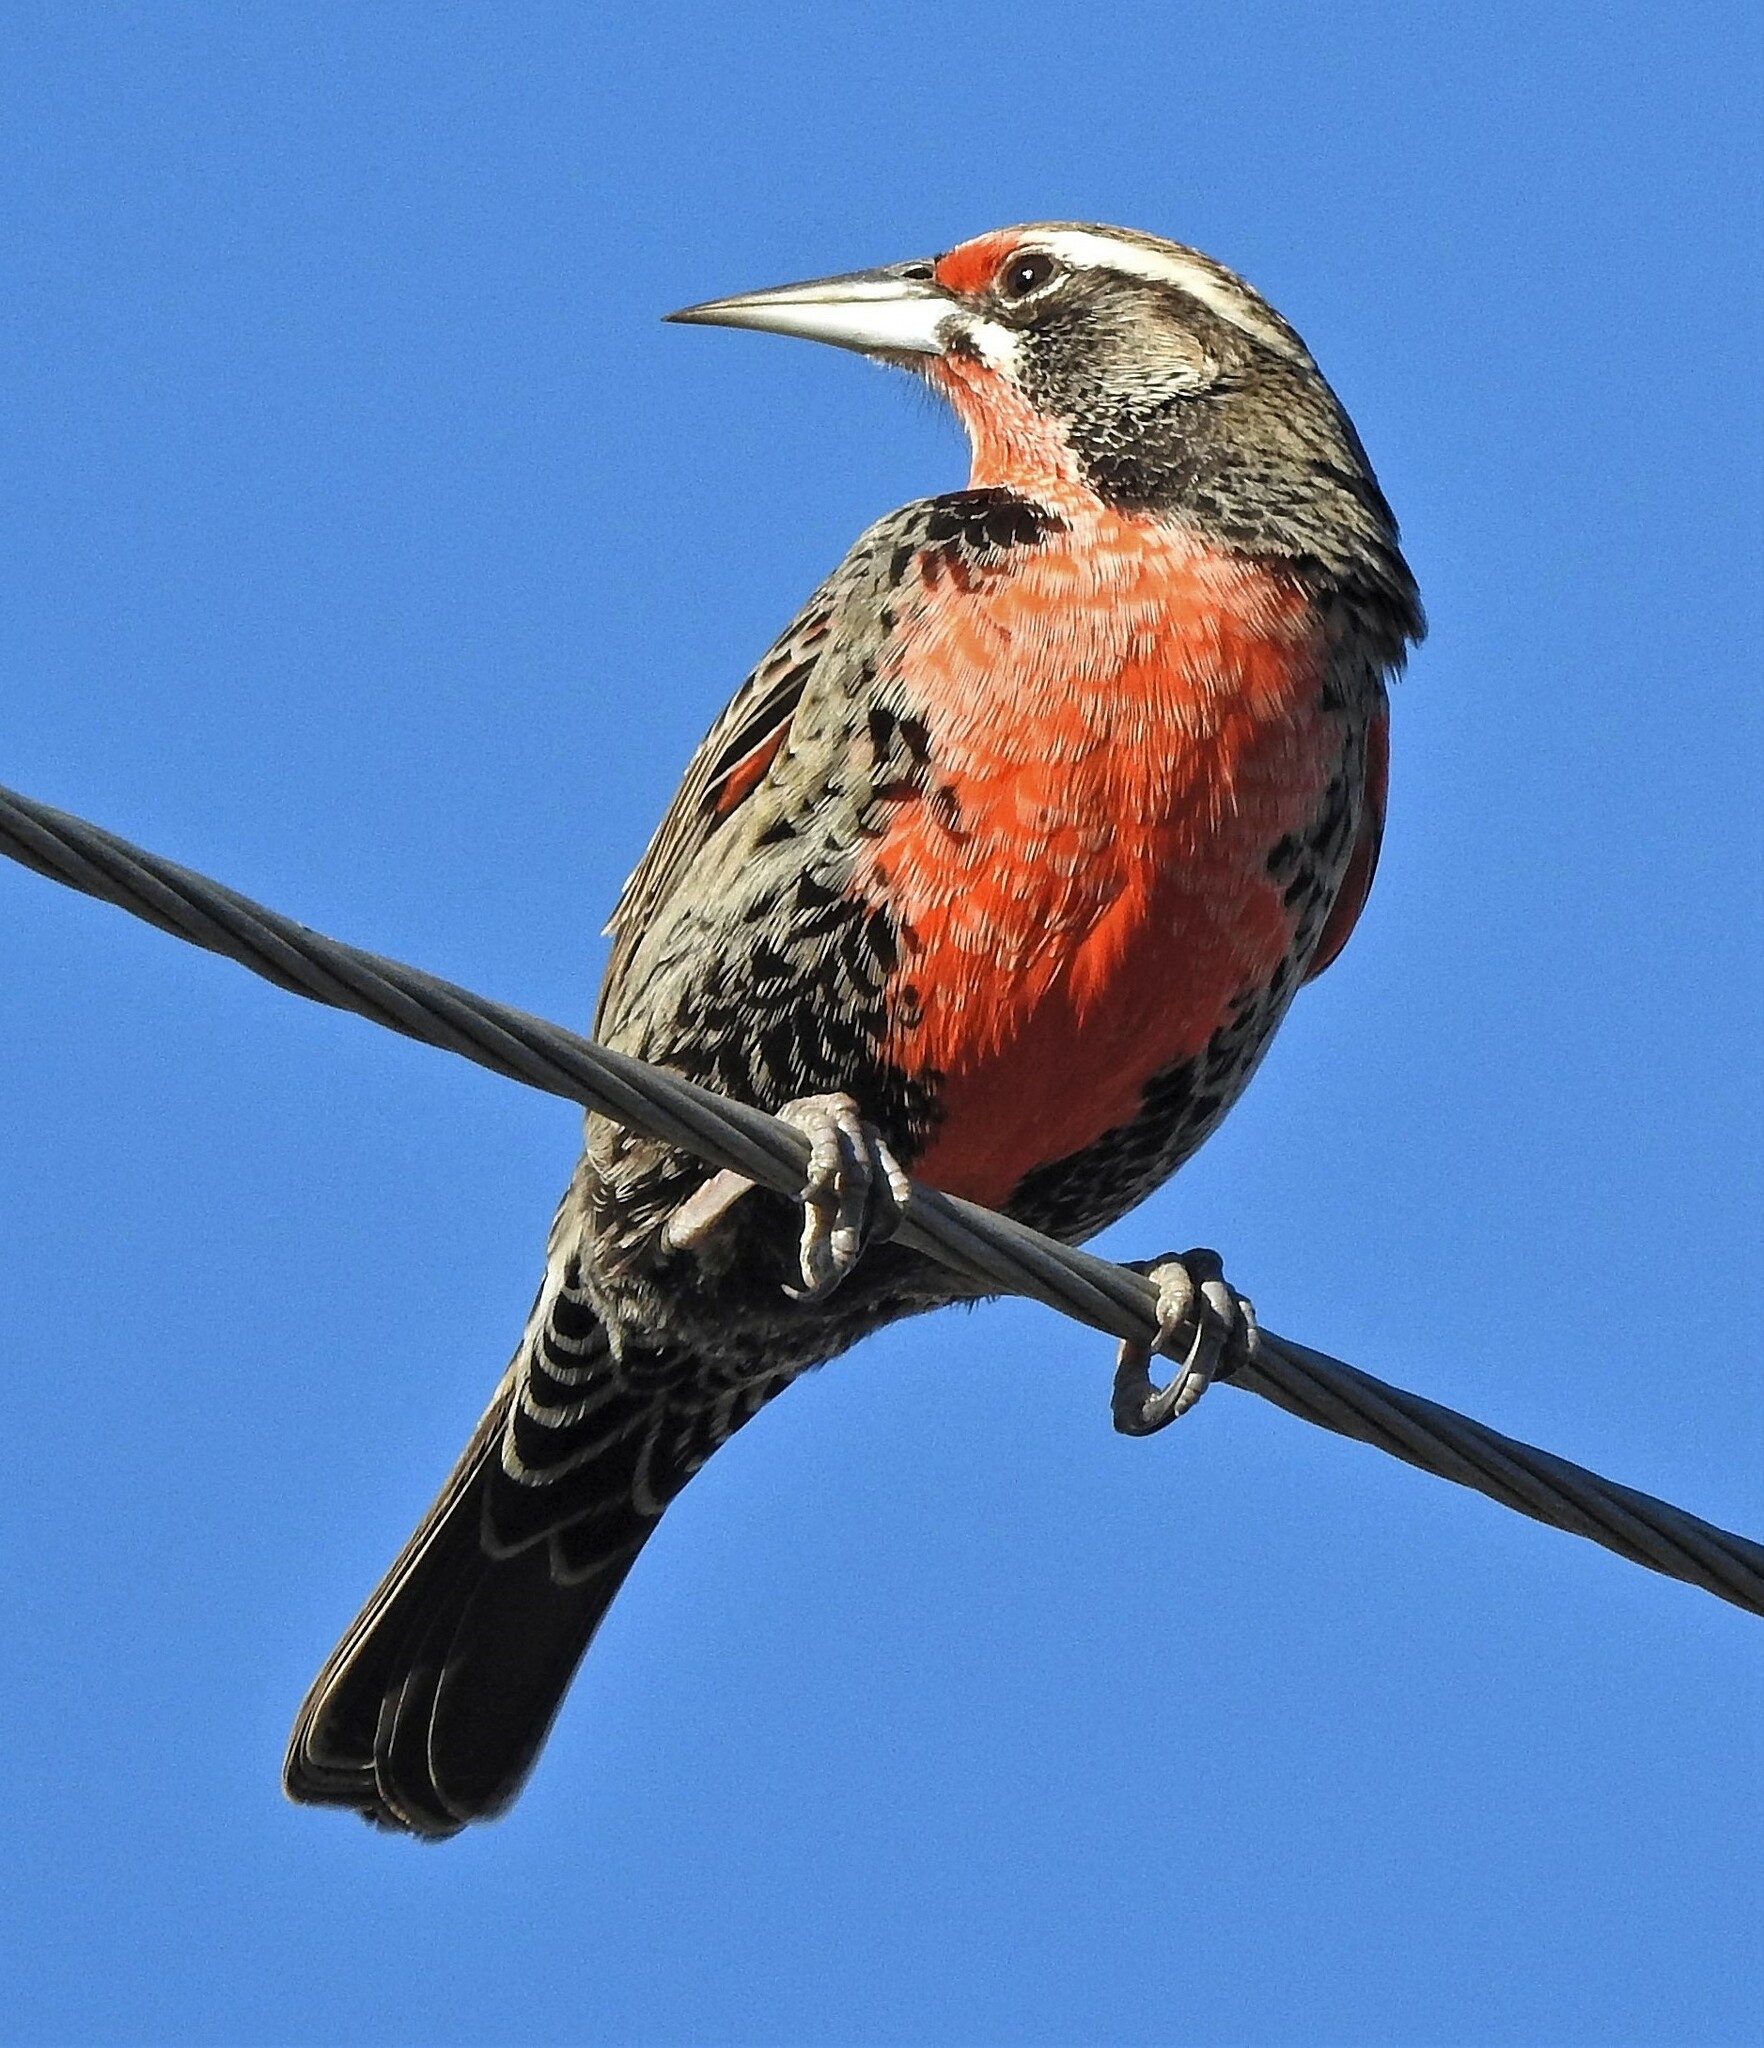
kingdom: Animalia
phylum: Chordata
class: Aves
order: Passeriformes
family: Icteridae
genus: Sturnella
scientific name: Sturnella loyca
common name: Long-tailed meadowlark
